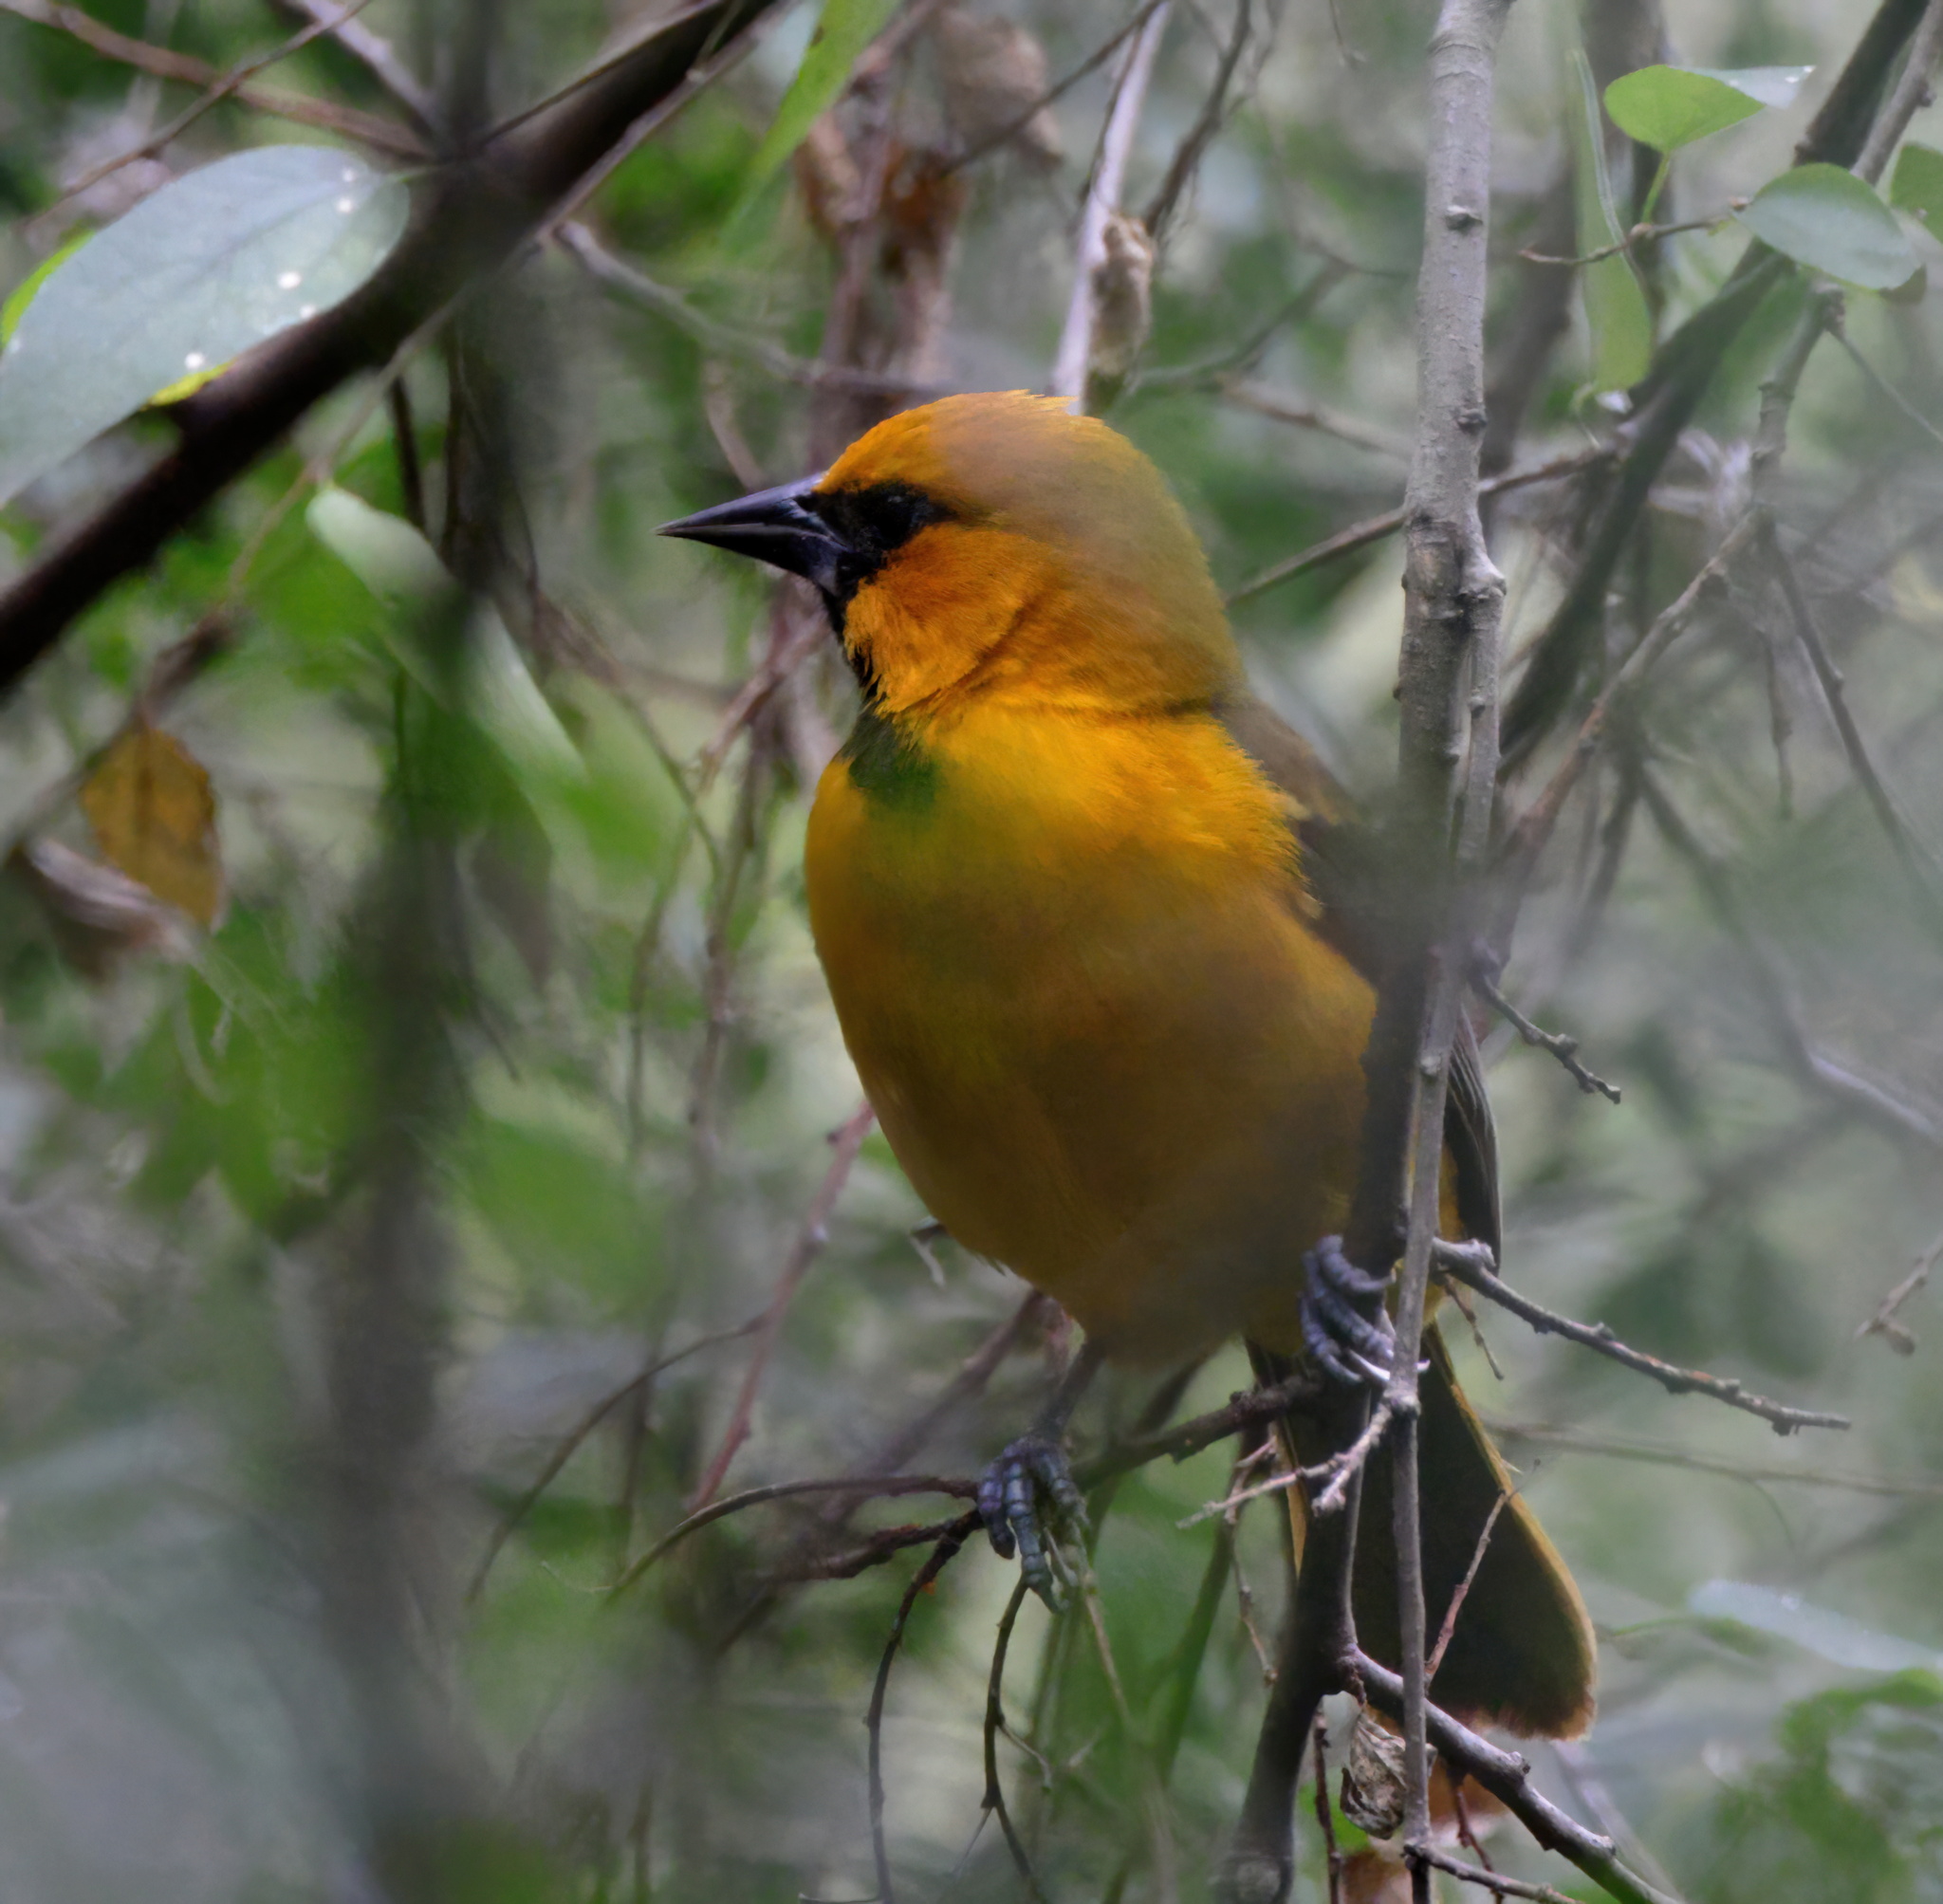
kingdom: Animalia
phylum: Chordata
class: Aves
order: Passeriformes
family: Icteridae
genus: Icterus
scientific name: Icterus gularis
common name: Altamira oriole
